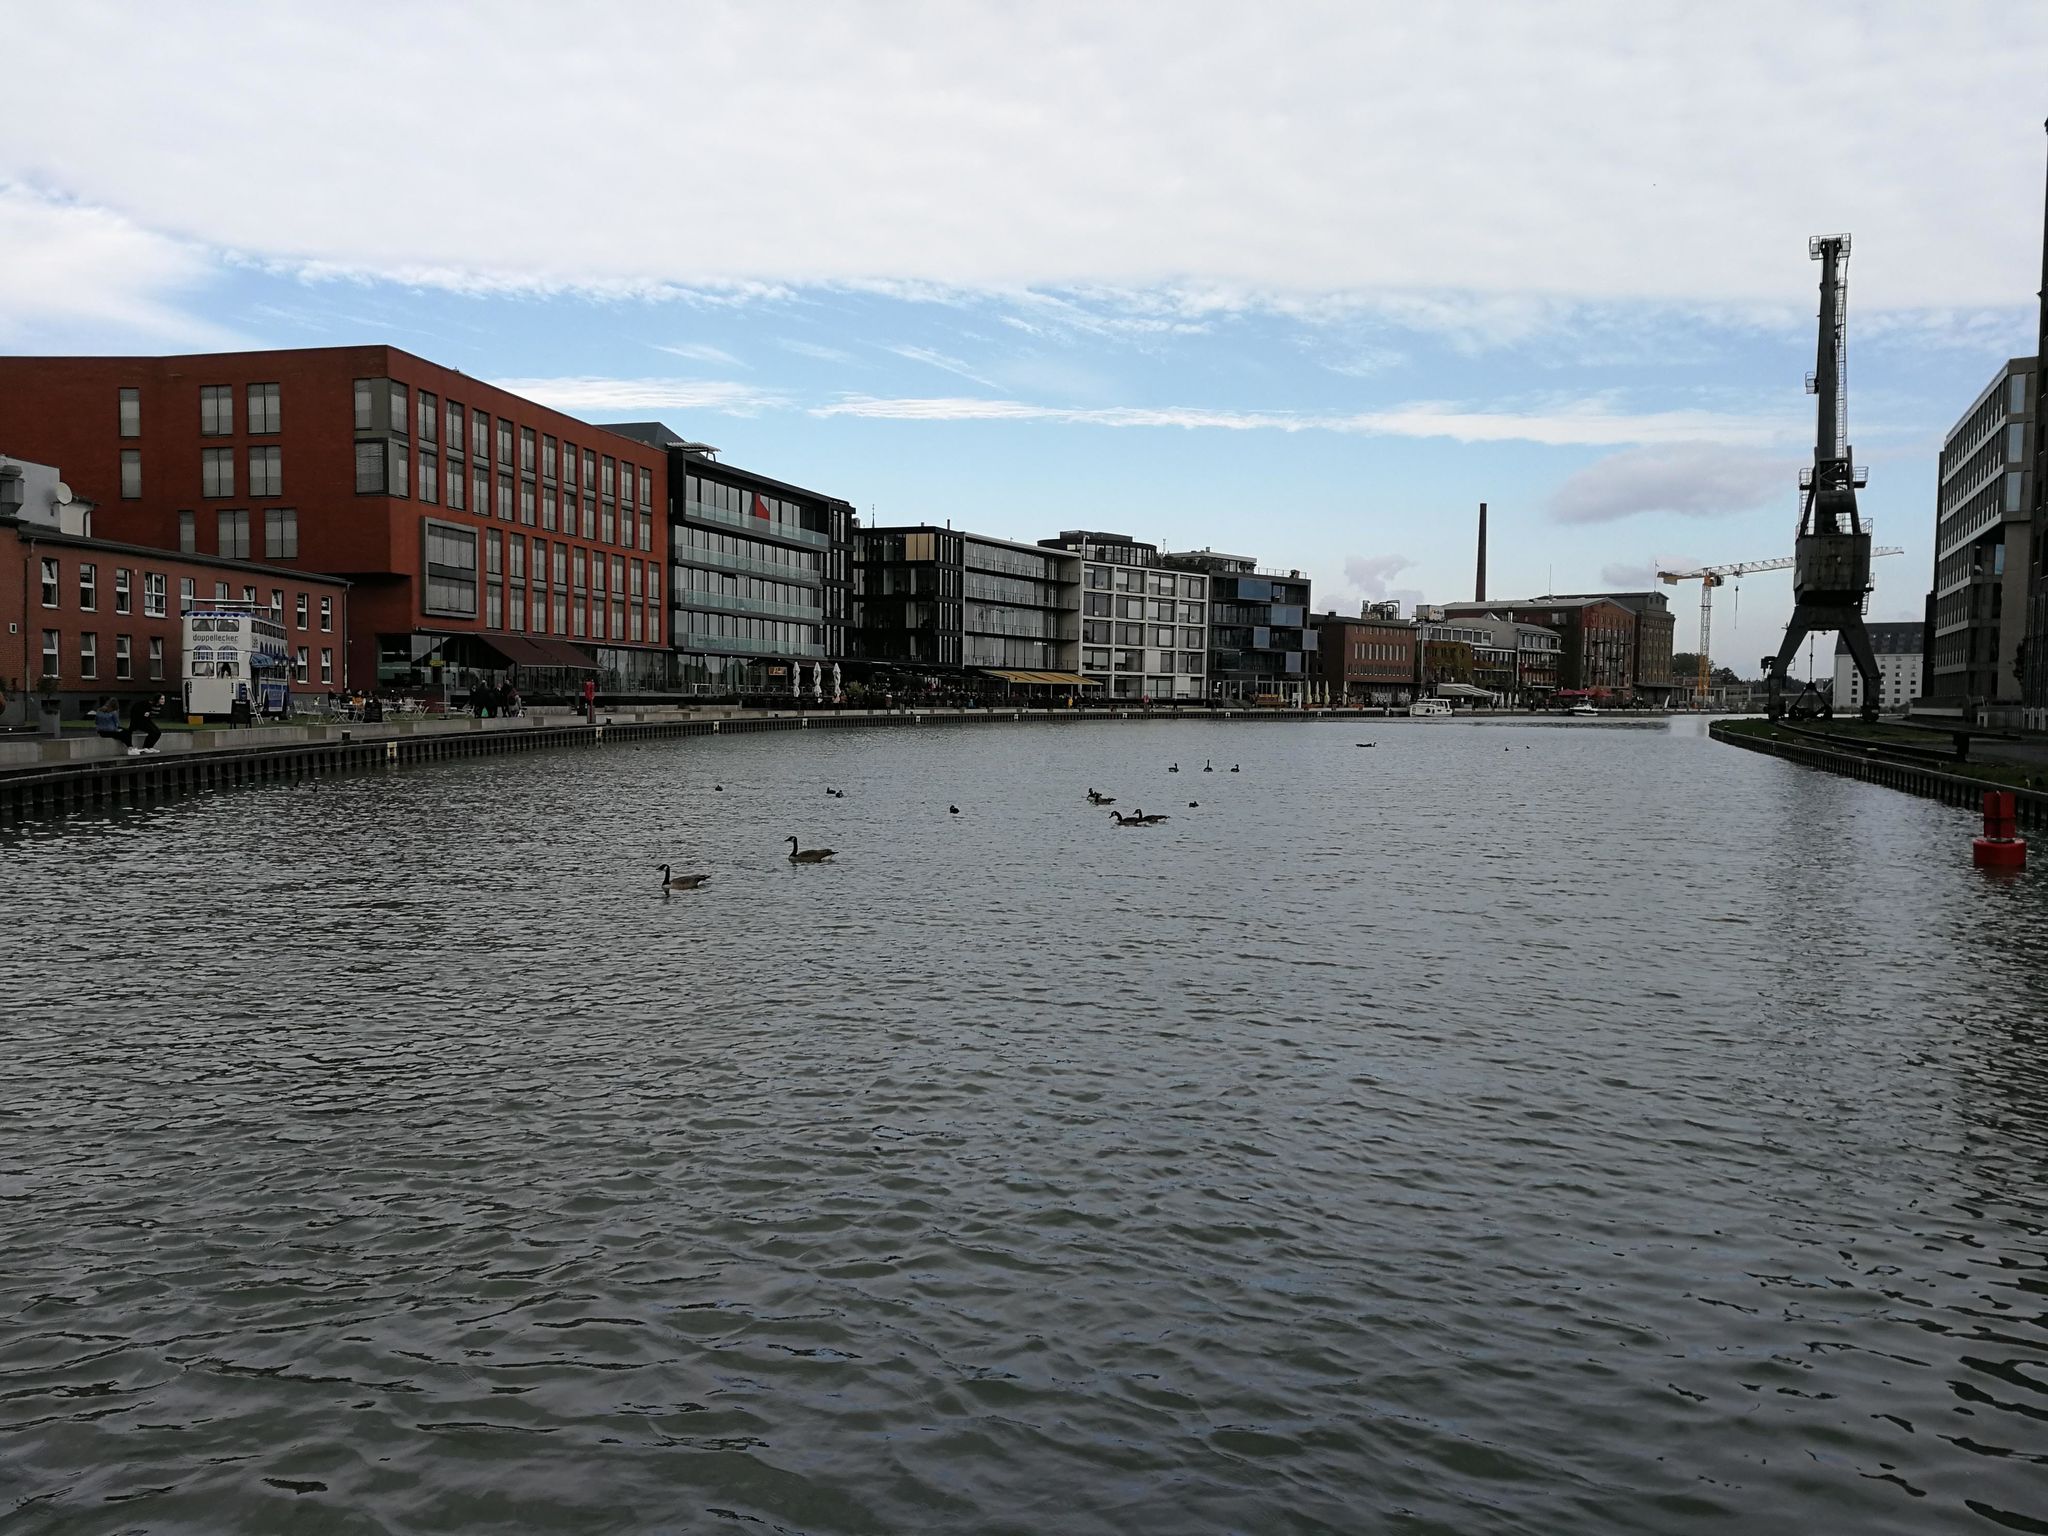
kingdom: Animalia
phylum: Chordata
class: Aves
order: Anseriformes
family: Anatidae
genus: Branta
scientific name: Branta canadensis
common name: Canada goose
